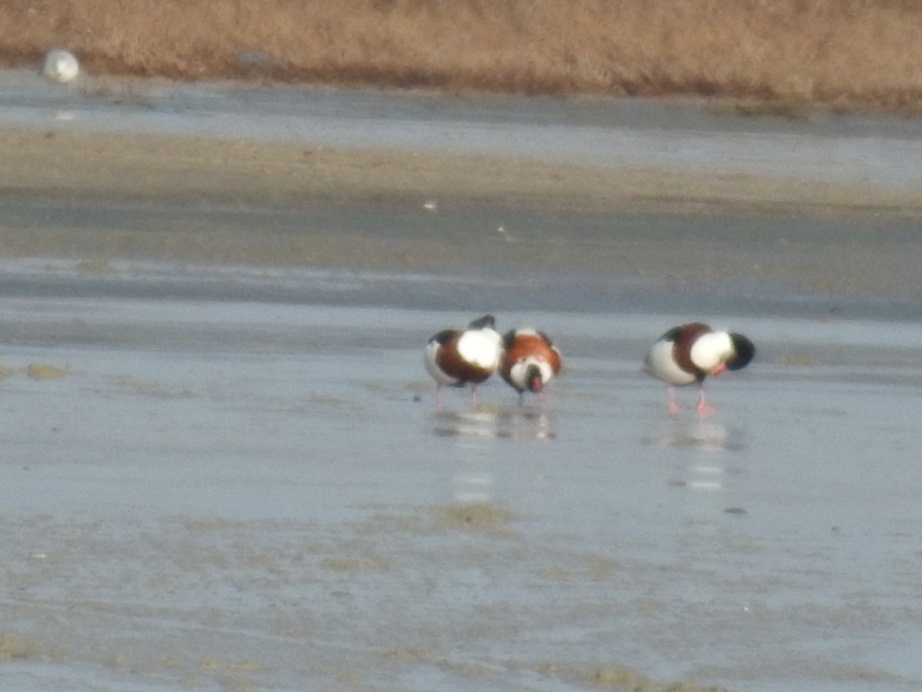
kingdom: Animalia
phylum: Chordata
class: Aves
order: Anseriformes
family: Anatidae
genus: Tadorna
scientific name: Tadorna tadorna
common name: Common shelduck
